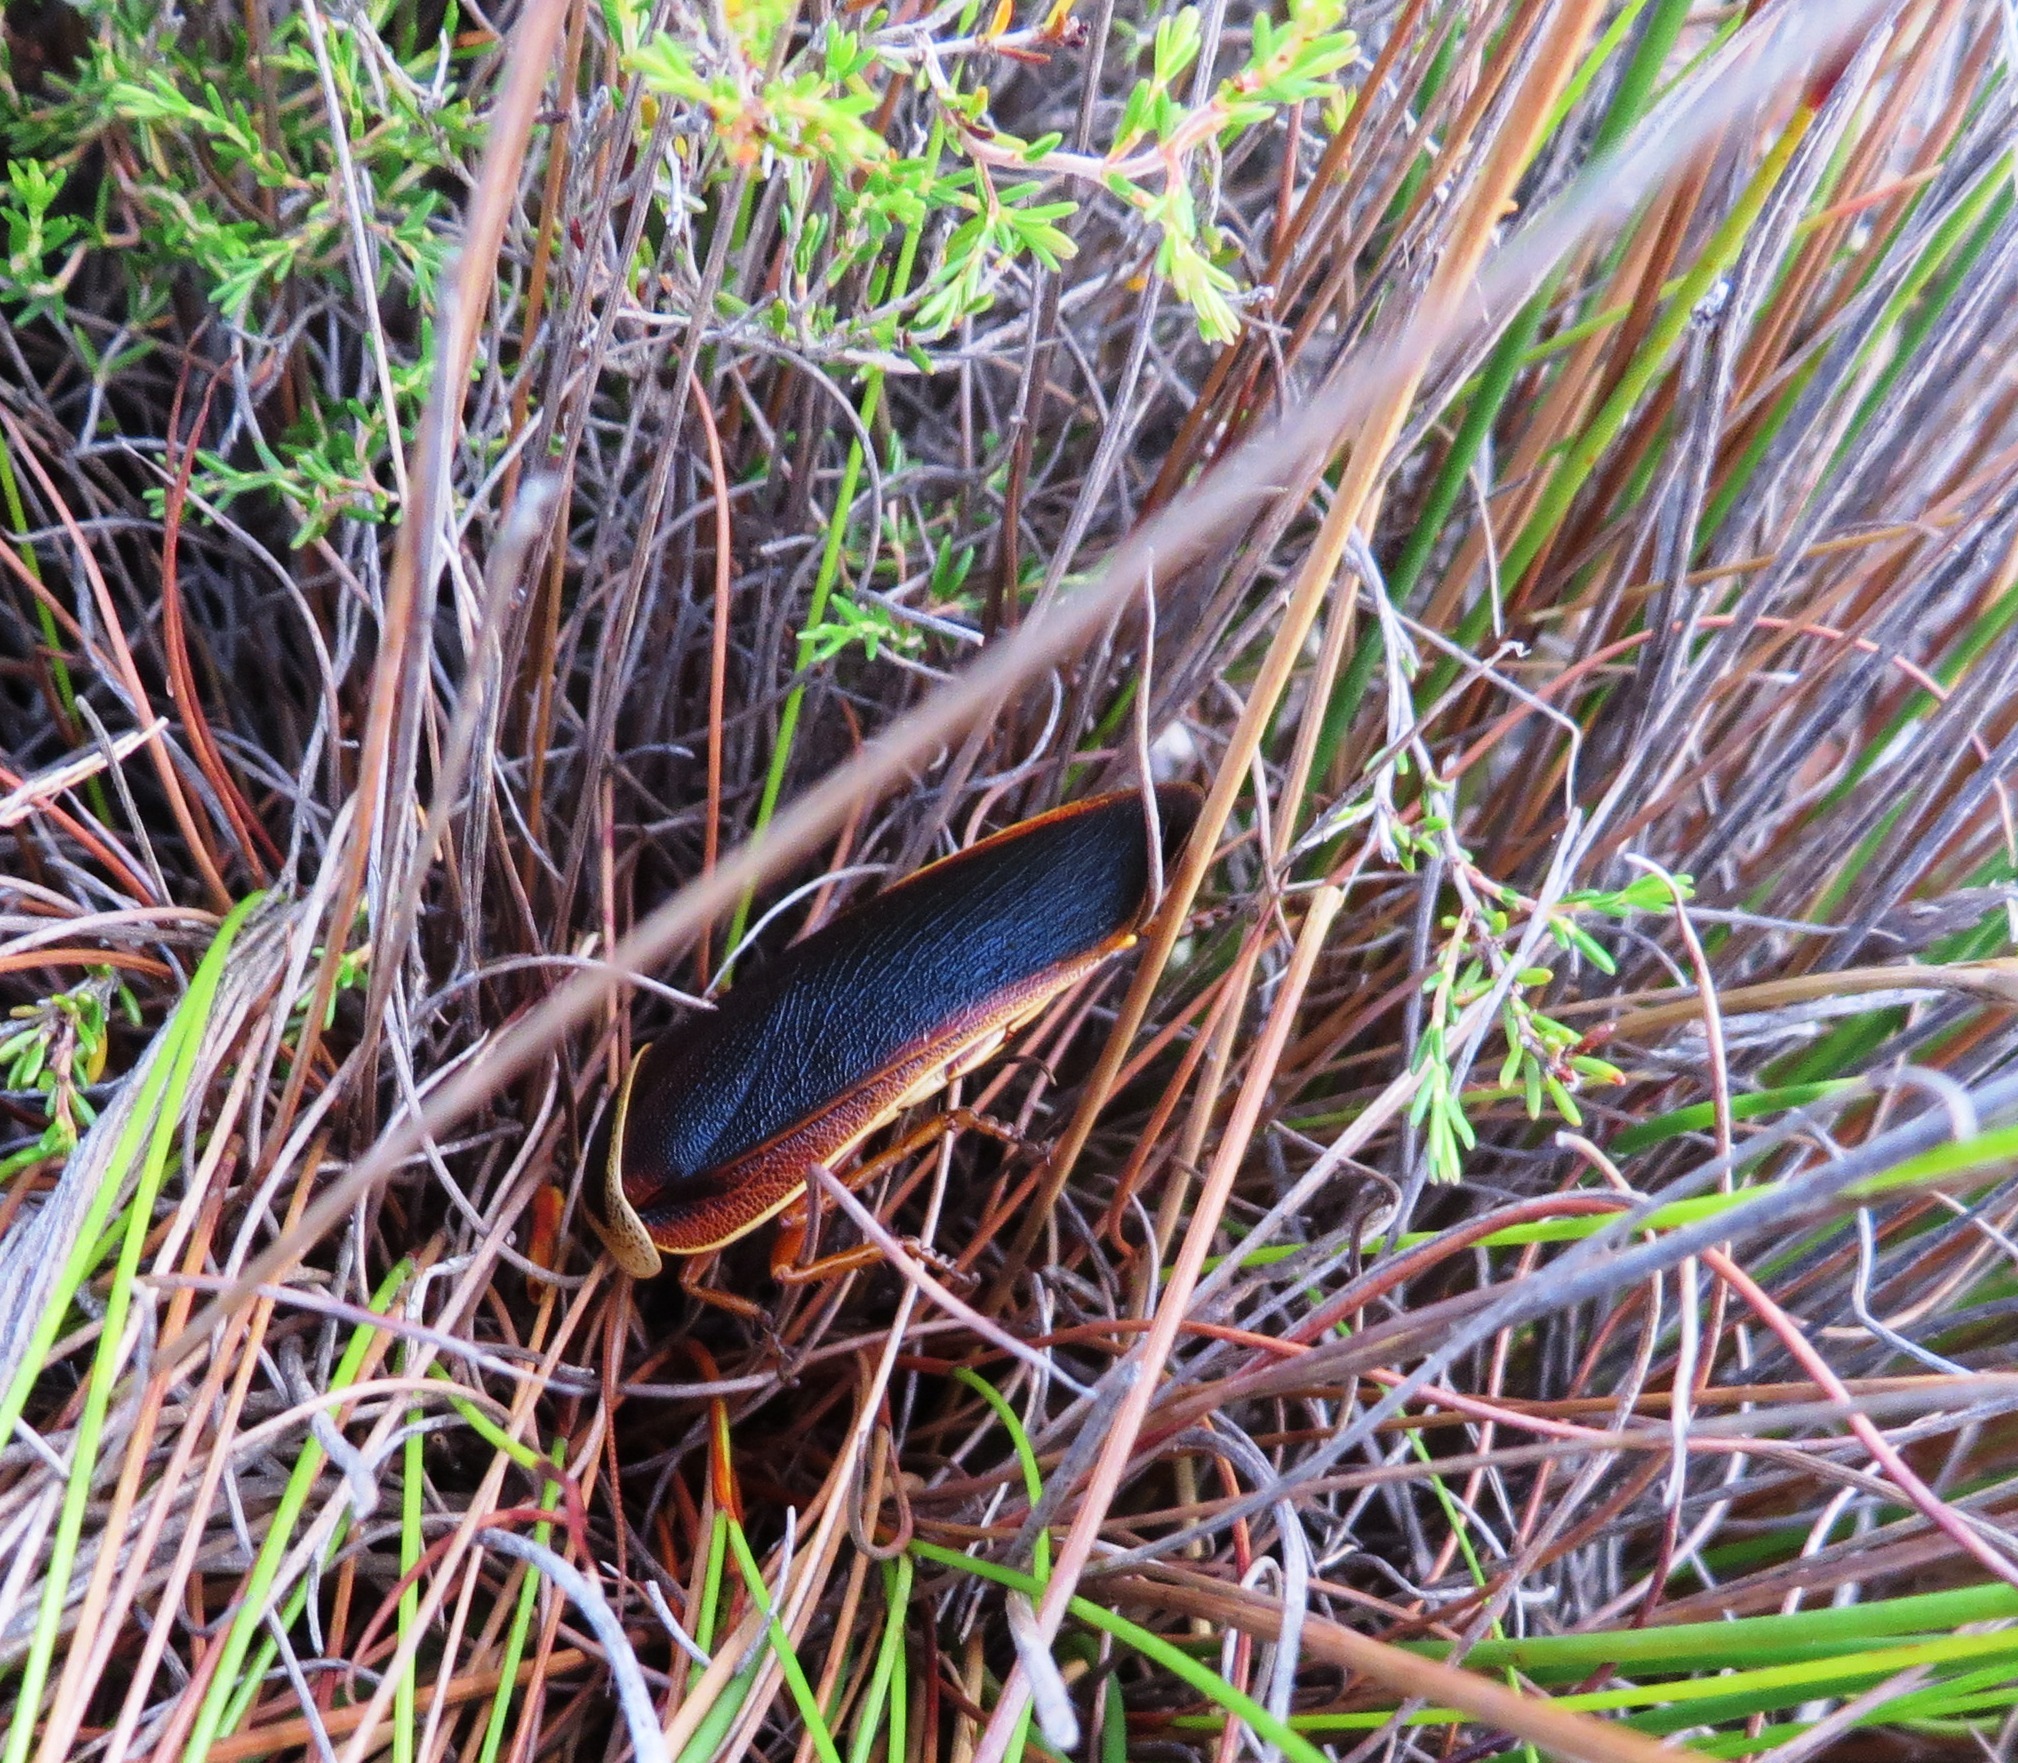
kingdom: Animalia
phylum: Arthropoda
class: Insecta
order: Blattodea
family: Blaberidae
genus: Aptera
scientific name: Aptera fusca
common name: Cape mountain cockroach
